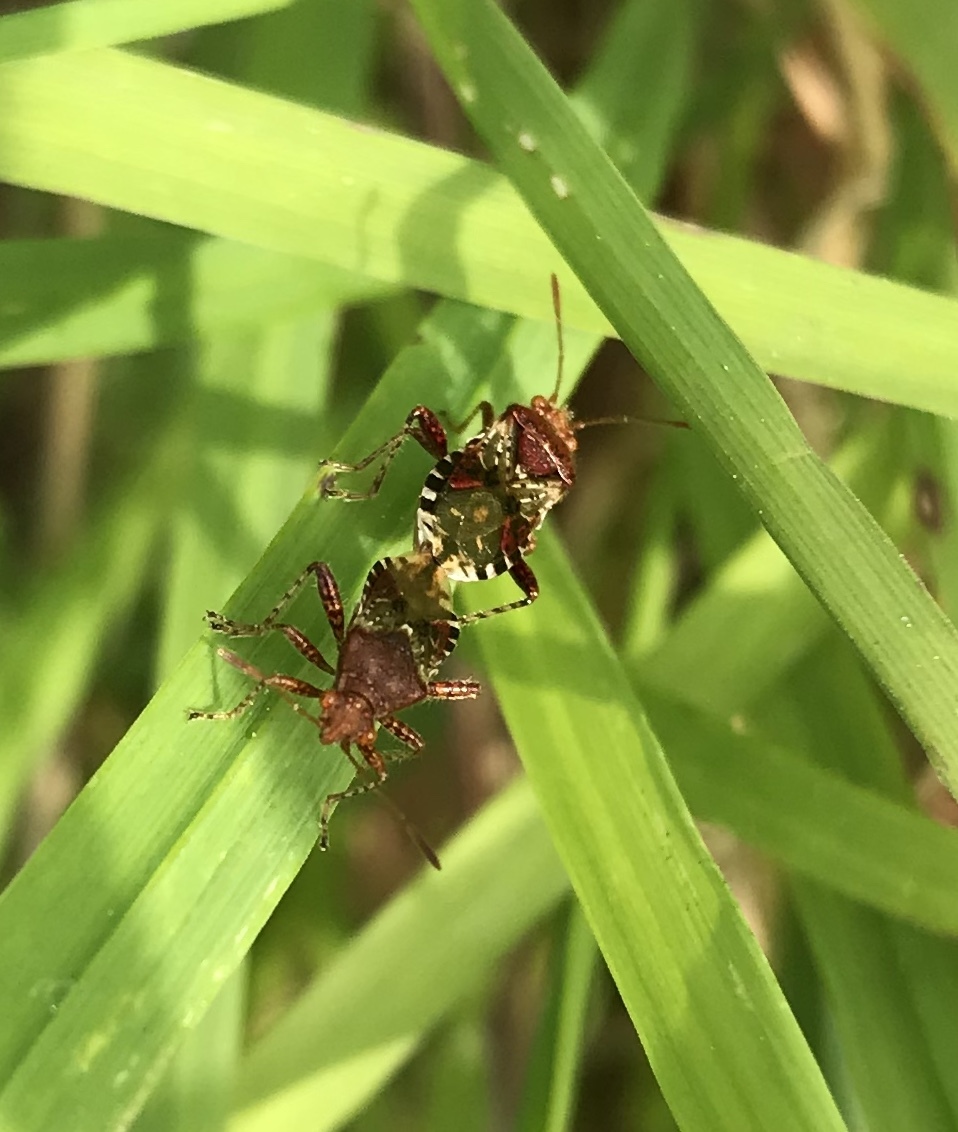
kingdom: Animalia
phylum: Arthropoda
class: Insecta
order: Hemiptera
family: Rhopalidae
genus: Rhopalus
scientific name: Rhopalus subrufus
